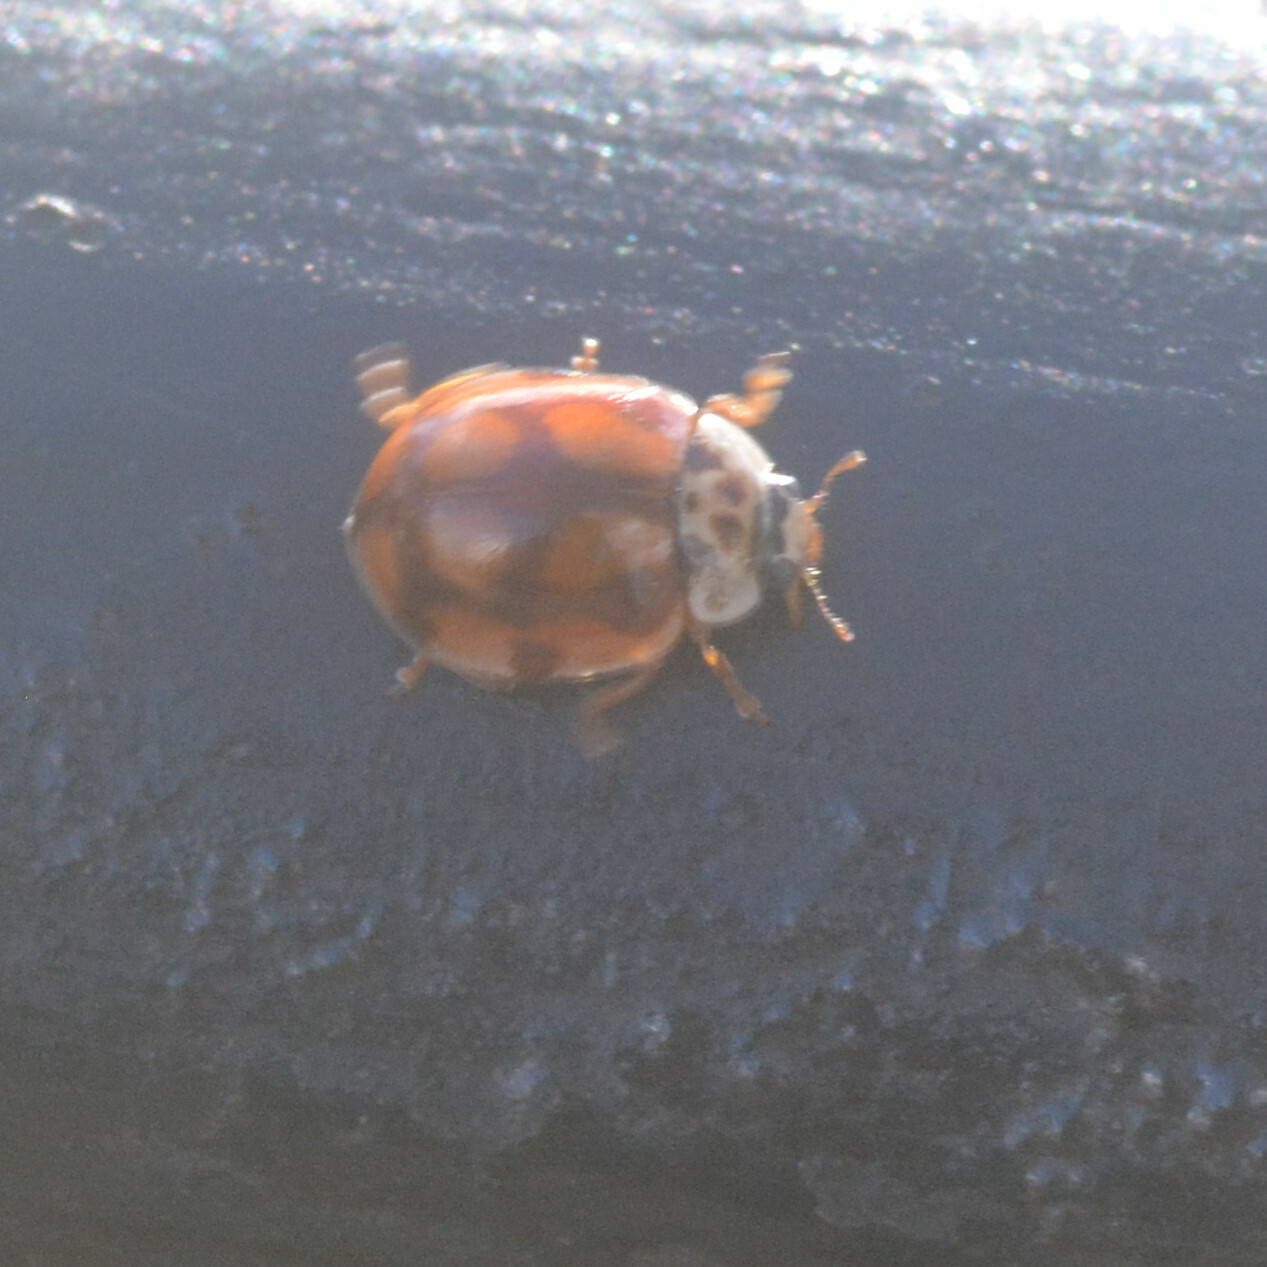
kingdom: Animalia
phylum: Arthropoda
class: Insecta
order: Coleoptera
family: Coccinellidae
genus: Adalia
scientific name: Adalia decempunctata
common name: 10-spot ladybird
